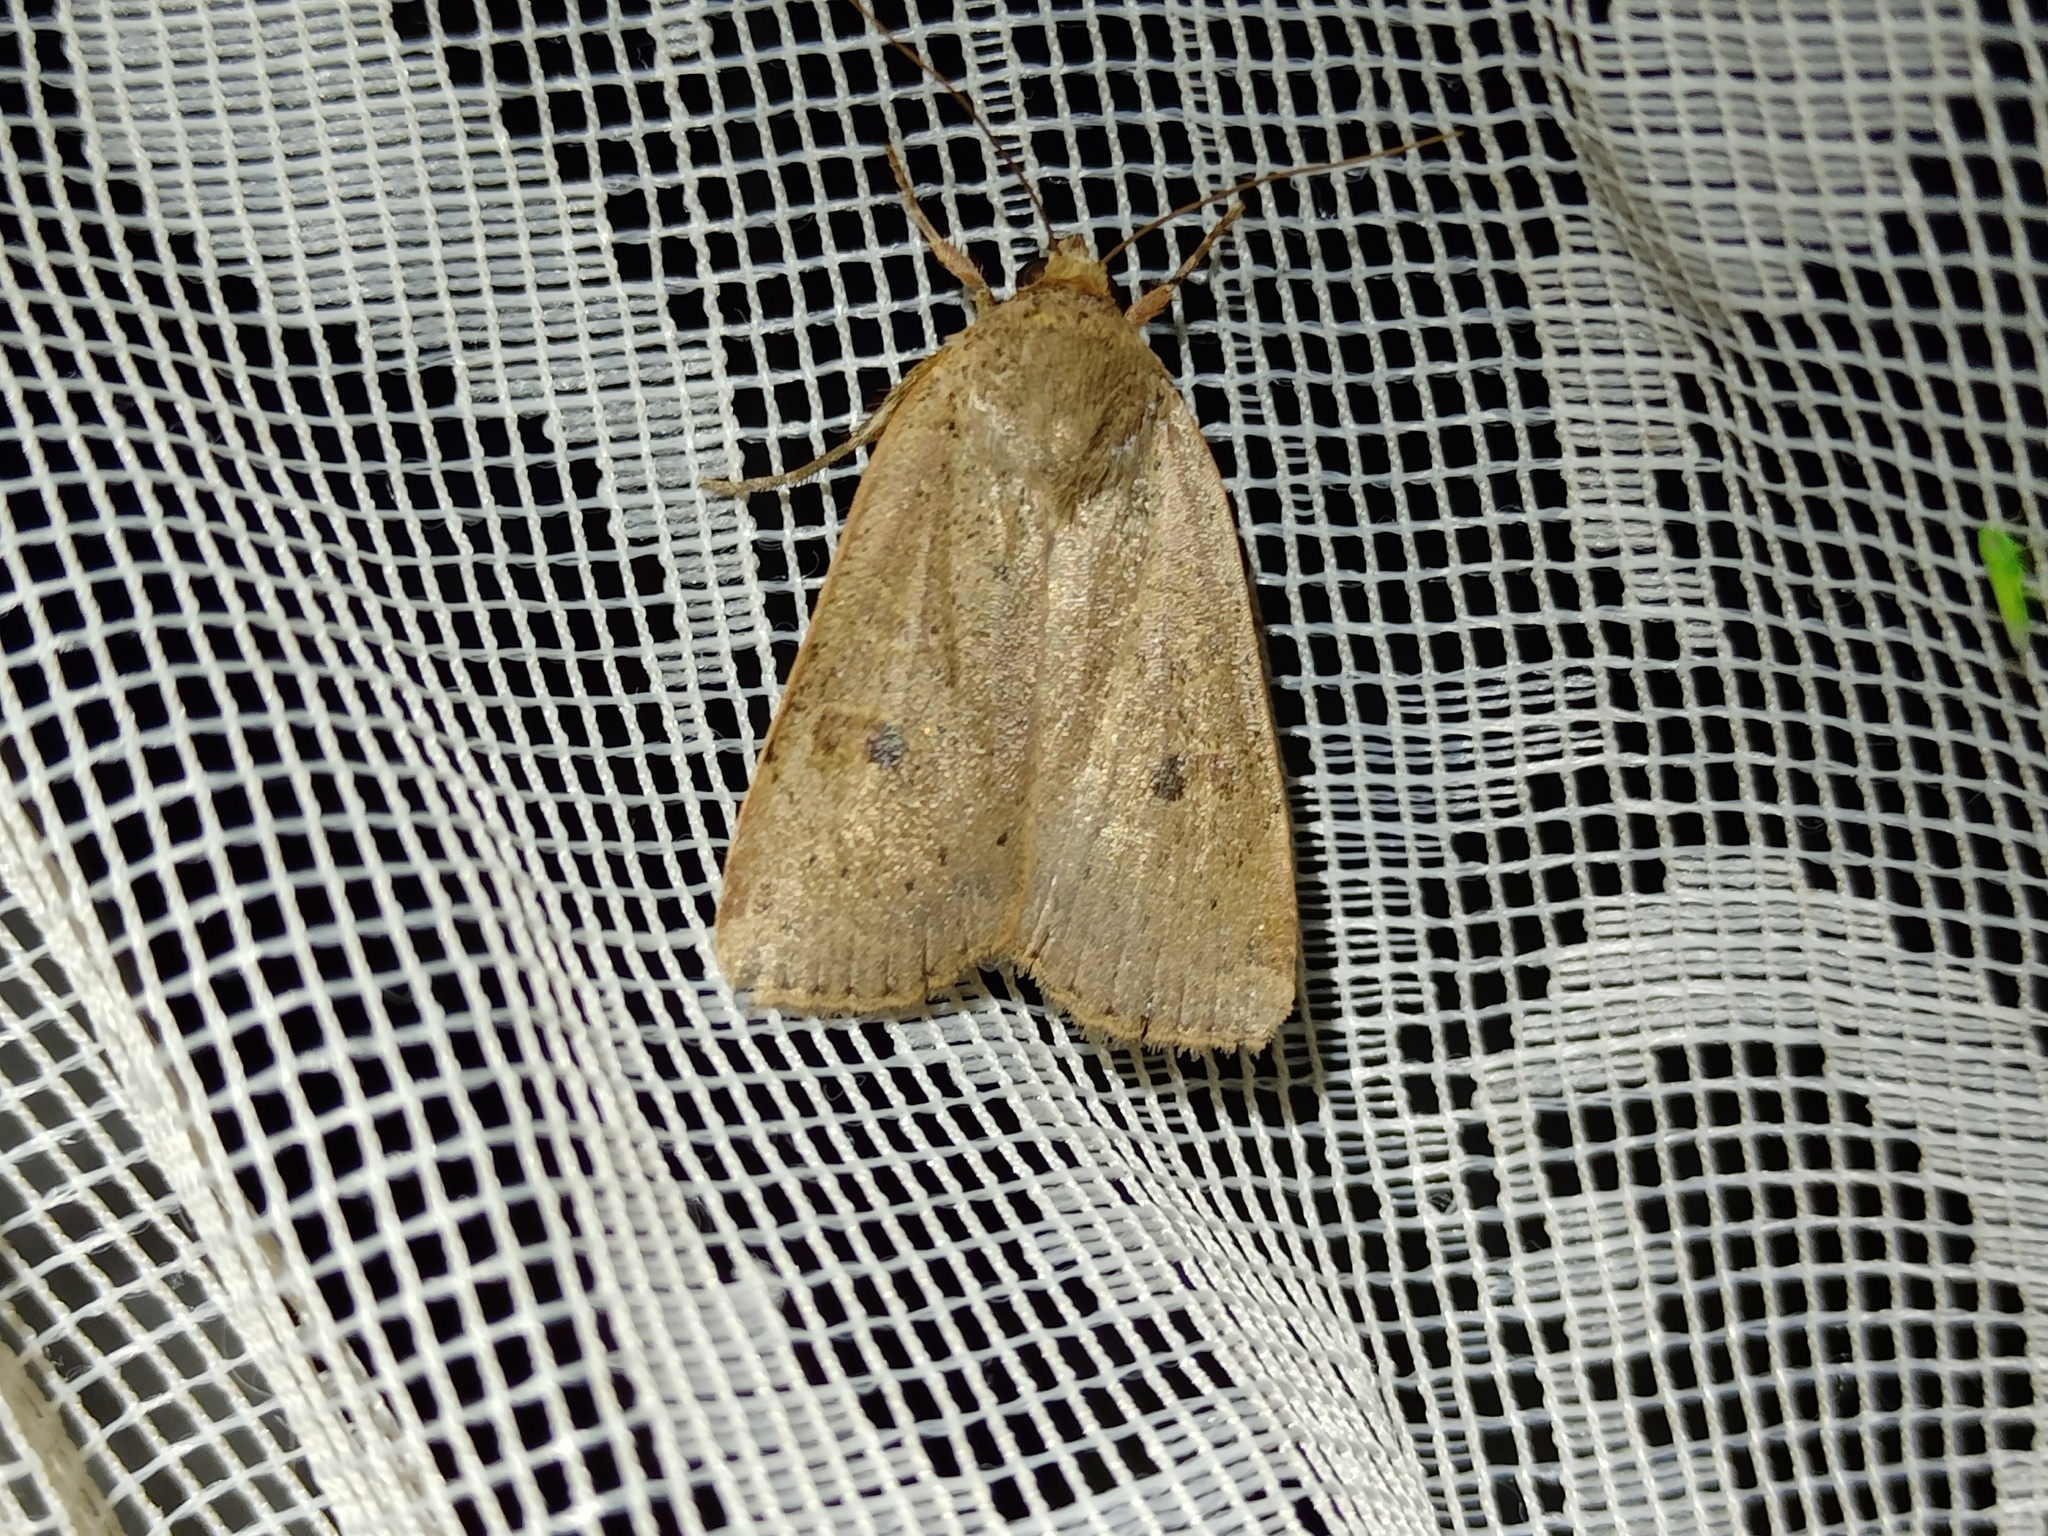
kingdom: Animalia
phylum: Arthropoda
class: Insecta
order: Lepidoptera
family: Noctuidae
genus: Noctua
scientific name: Noctua comes
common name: Lesser yellow underwing
